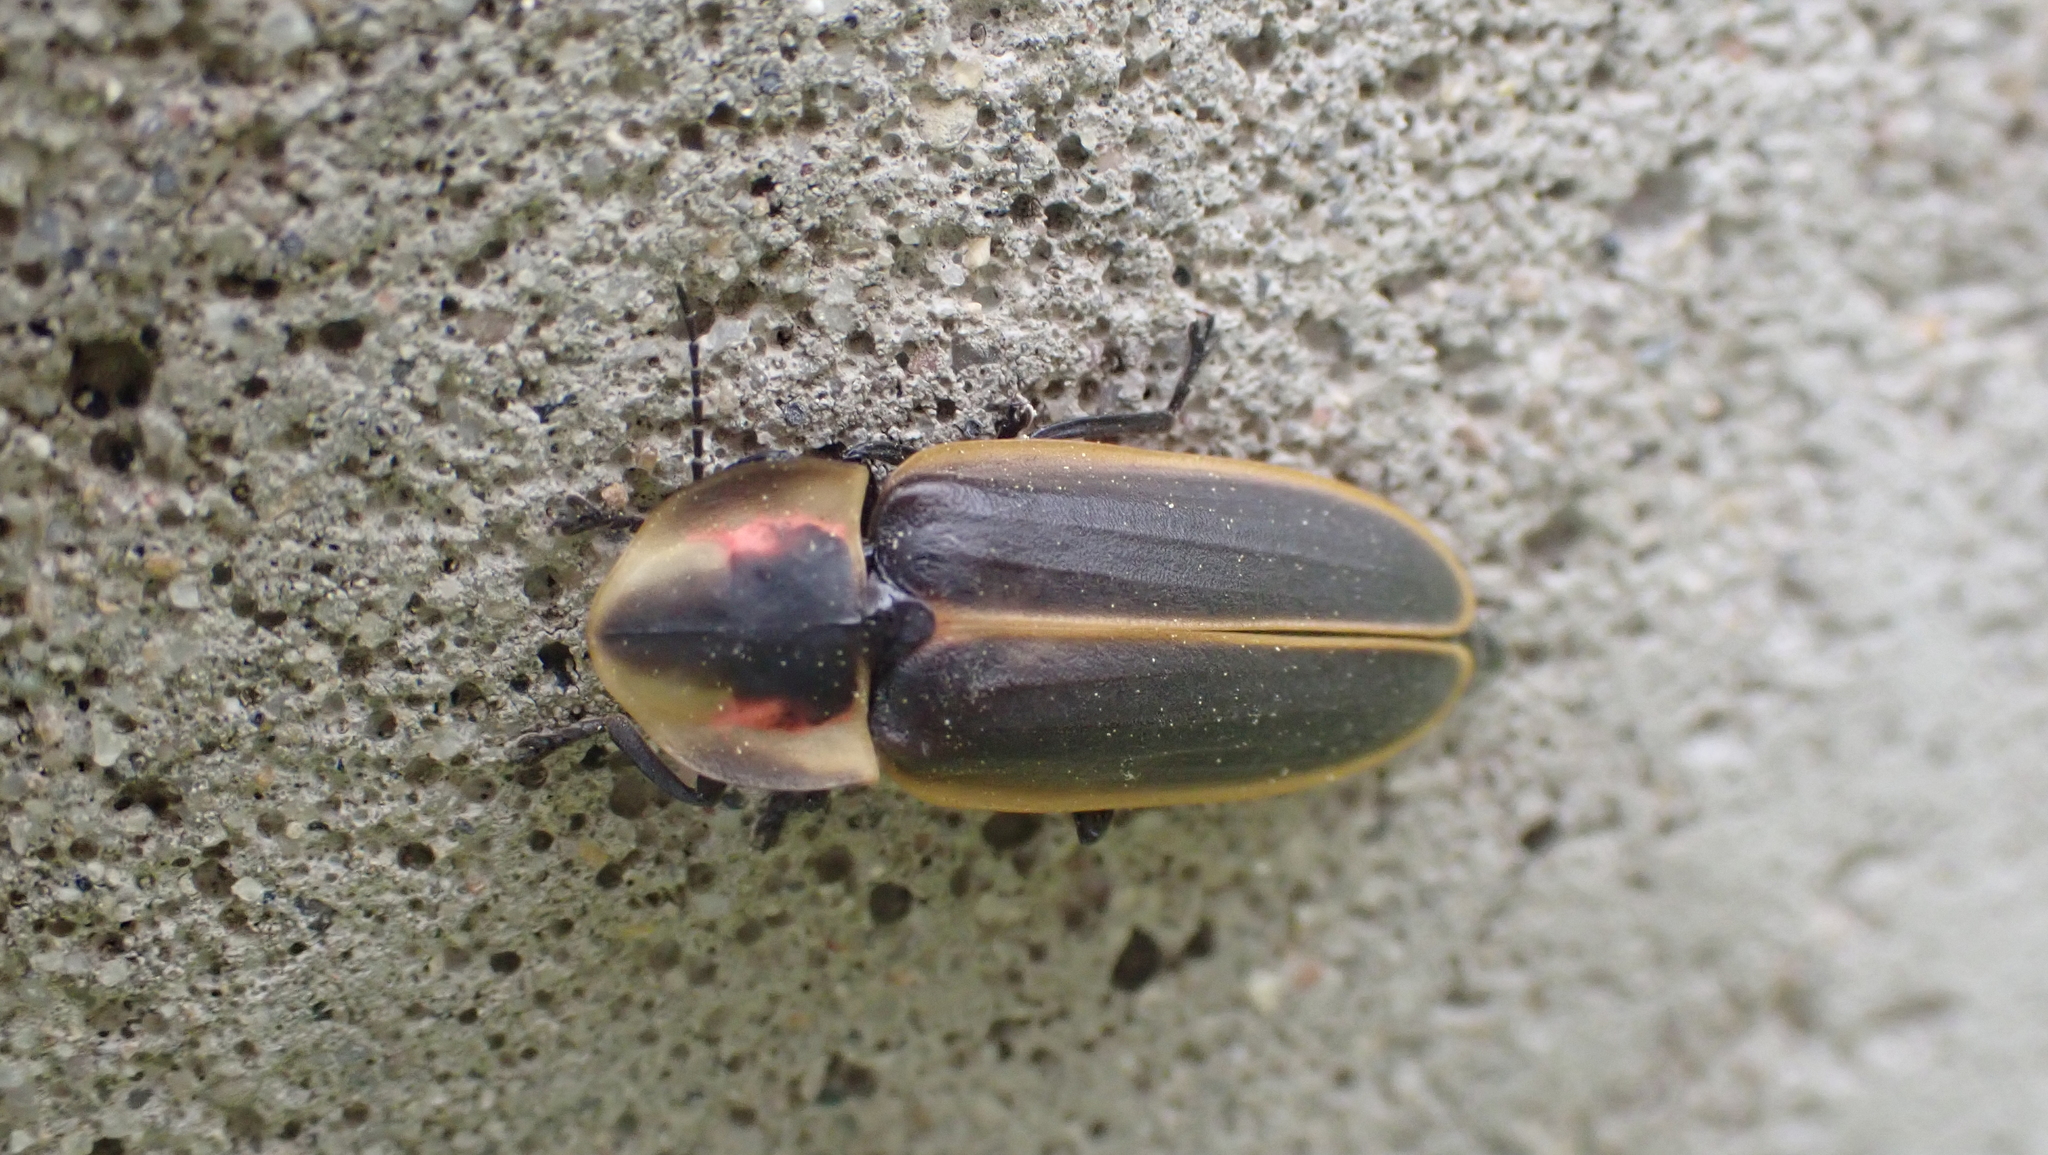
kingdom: Animalia
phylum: Arthropoda
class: Insecta
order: Coleoptera
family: Lampyridae
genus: Pyractomena
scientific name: Pyractomena borealis
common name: Northern firefly
